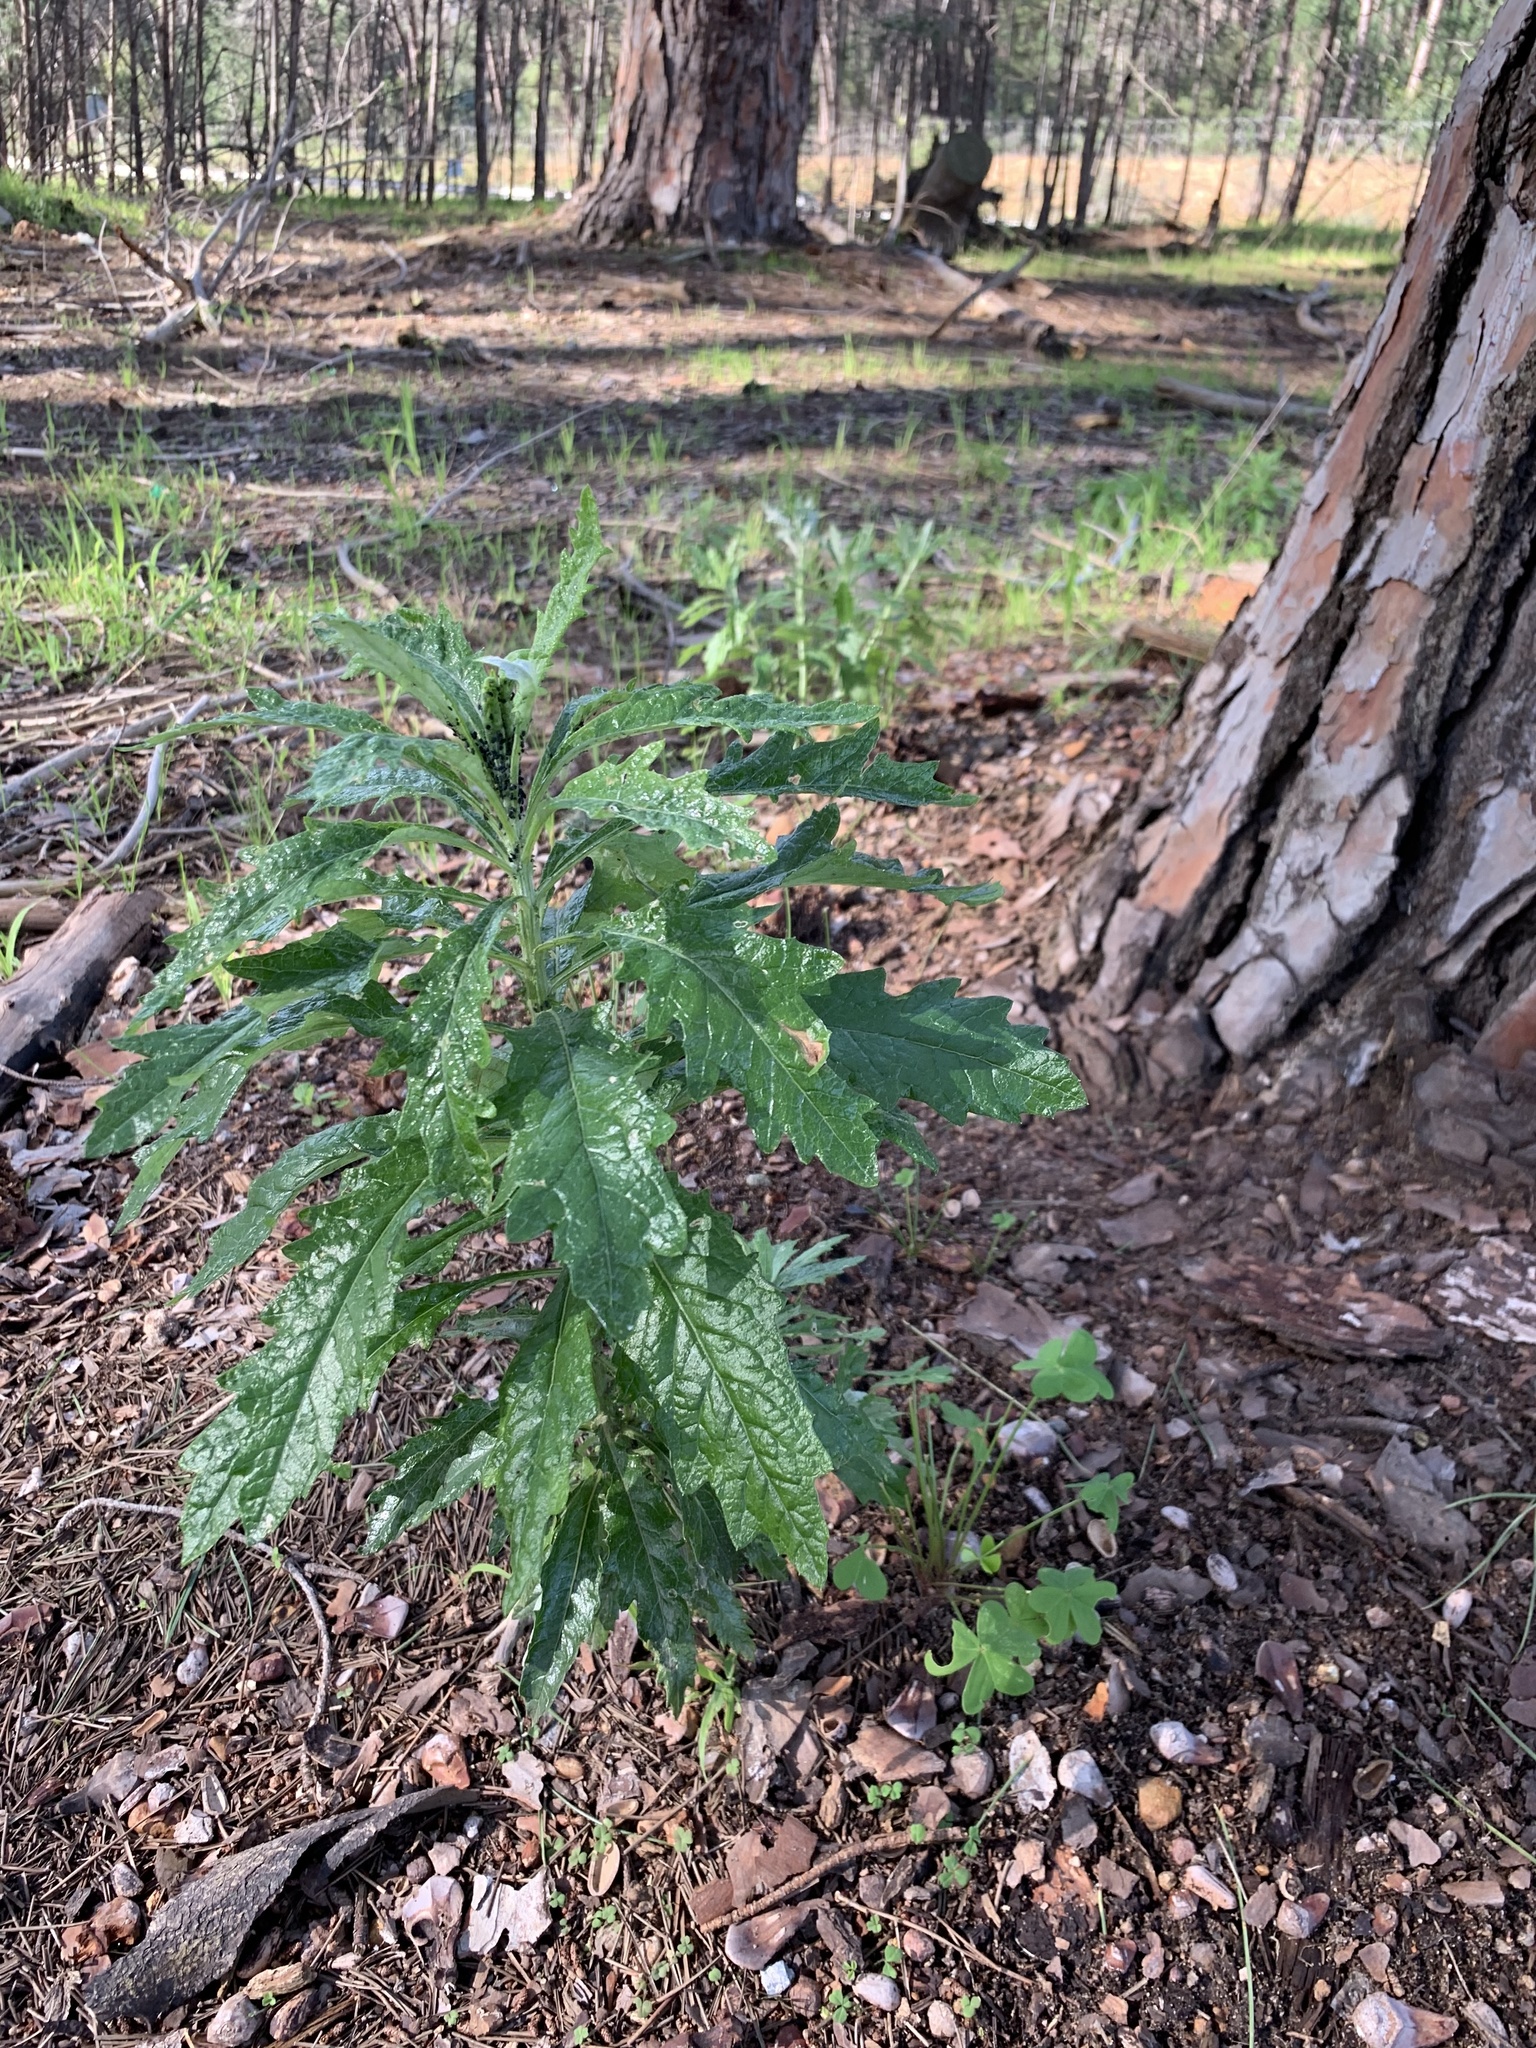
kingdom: Plantae
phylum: Tracheophyta
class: Magnoliopsida
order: Asterales
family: Asteraceae
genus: Senecio
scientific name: Senecio pterophorus
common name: Shoddy ragwort
